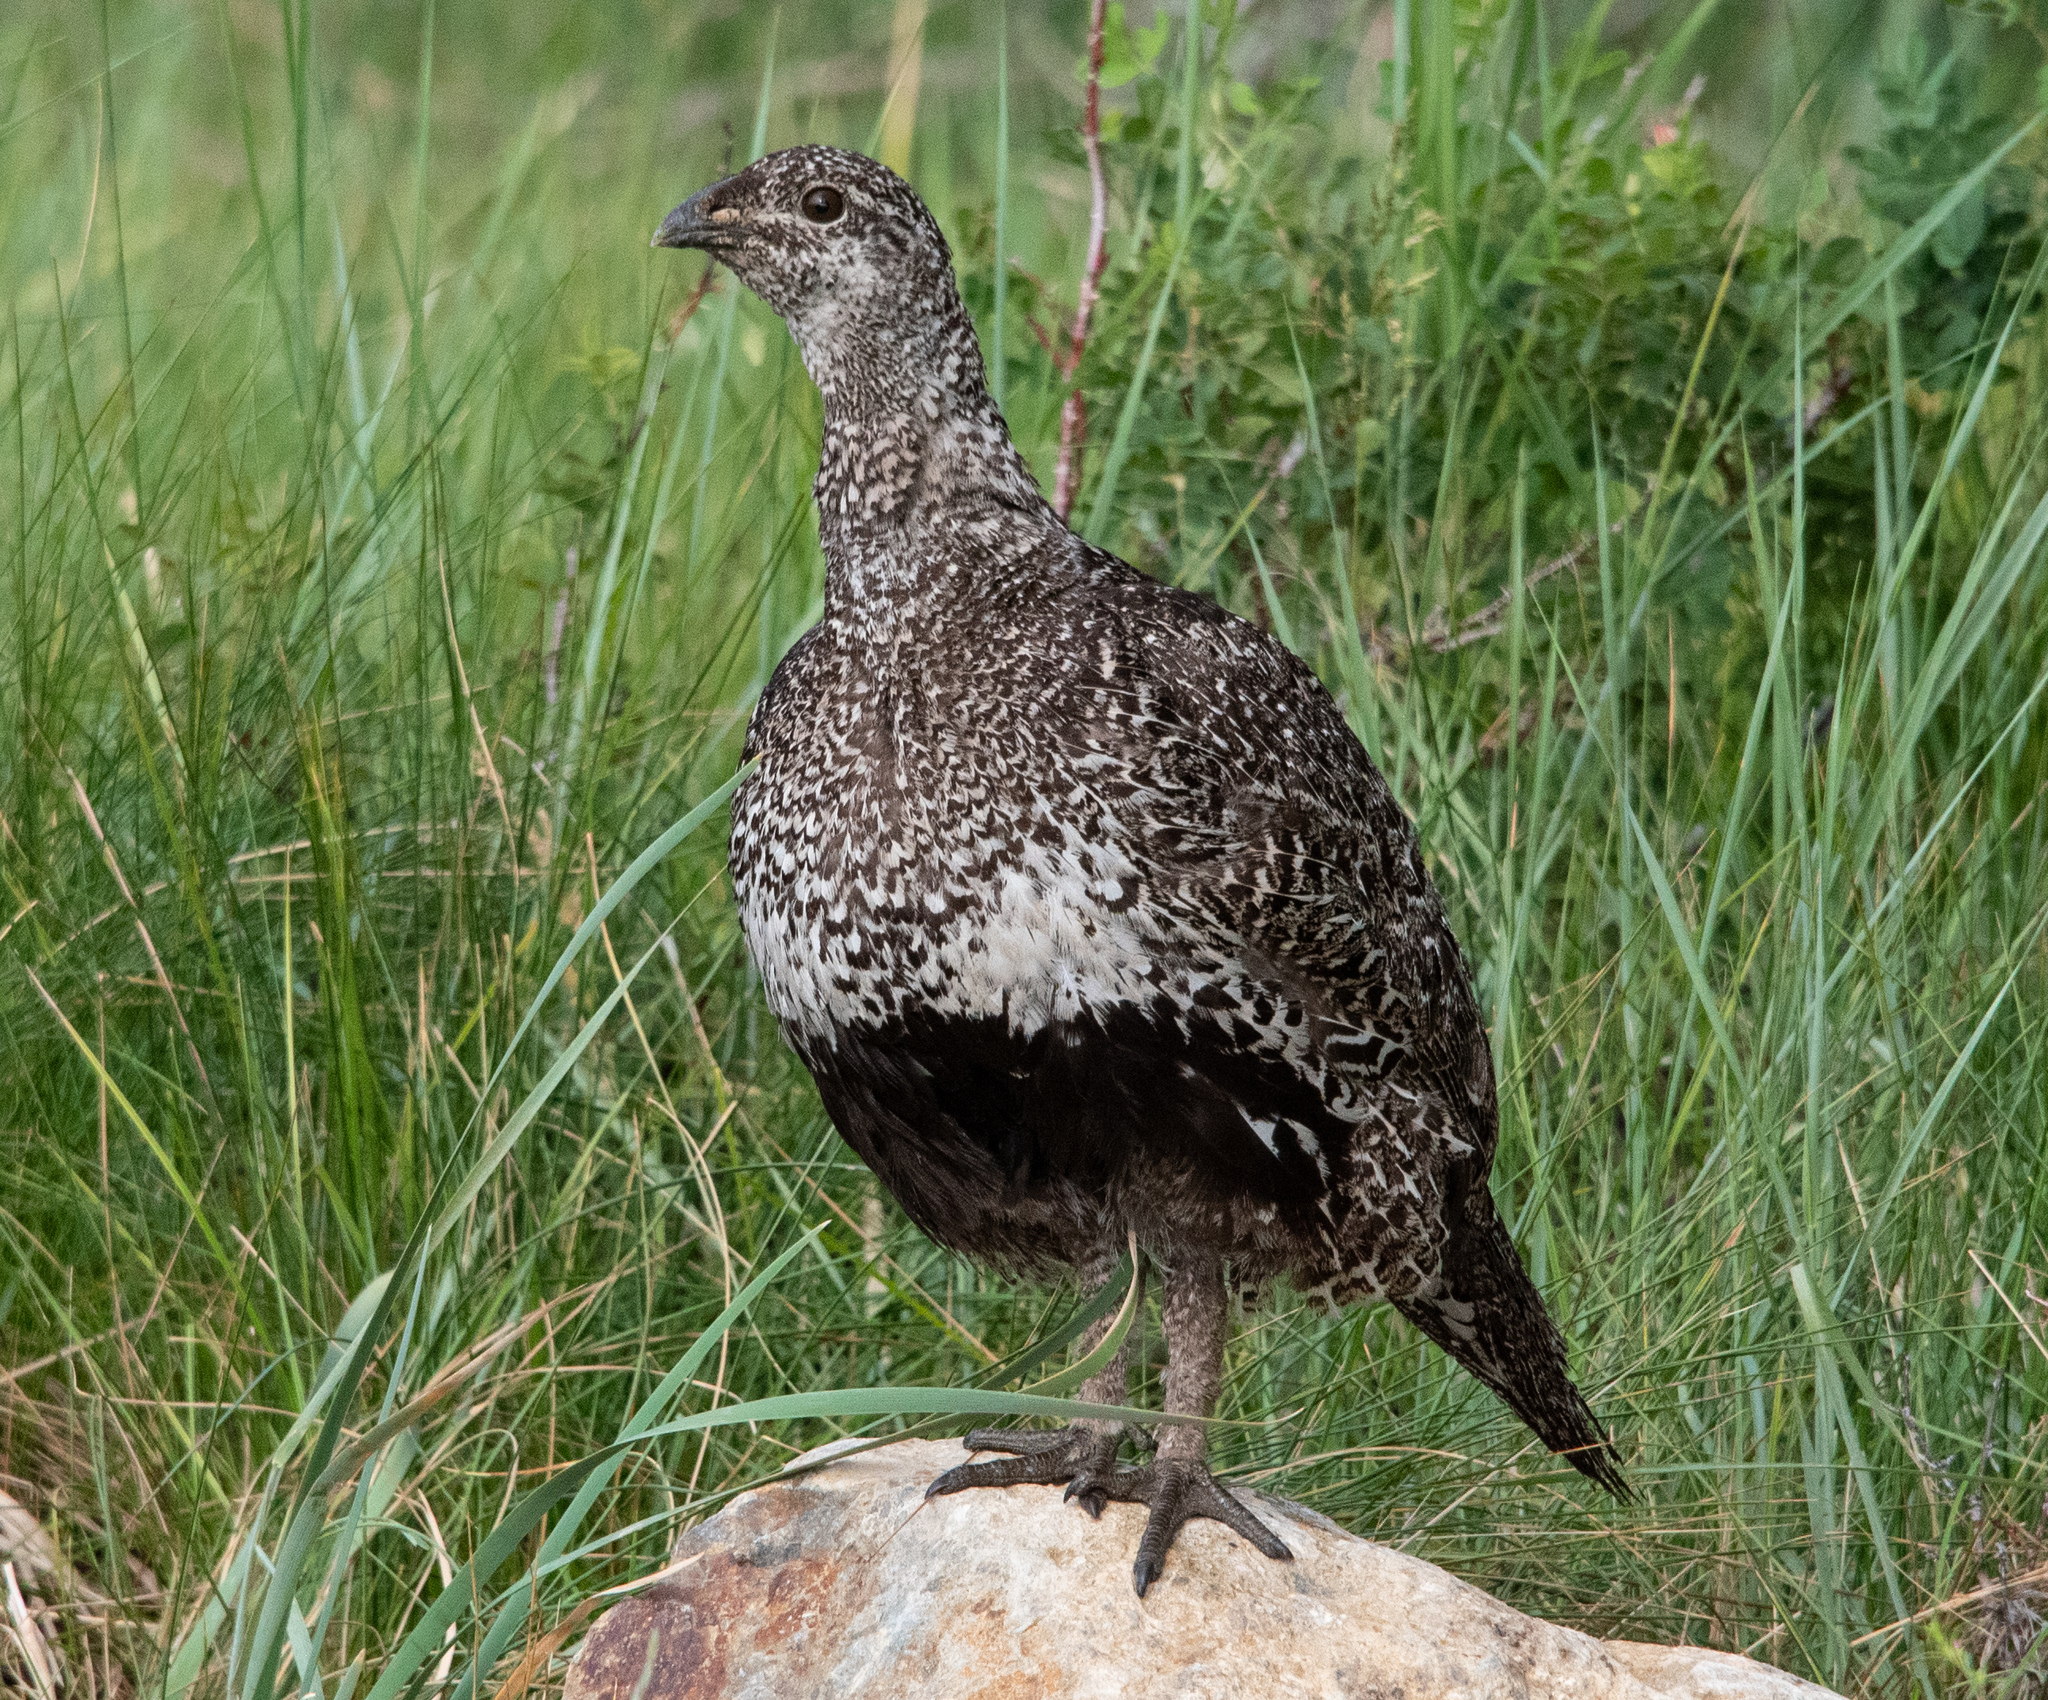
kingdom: Animalia
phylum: Chordata
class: Aves
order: Galliformes
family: Phasianidae
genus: Centrocercus
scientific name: Centrocercus urophasianus
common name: Sage grouse
